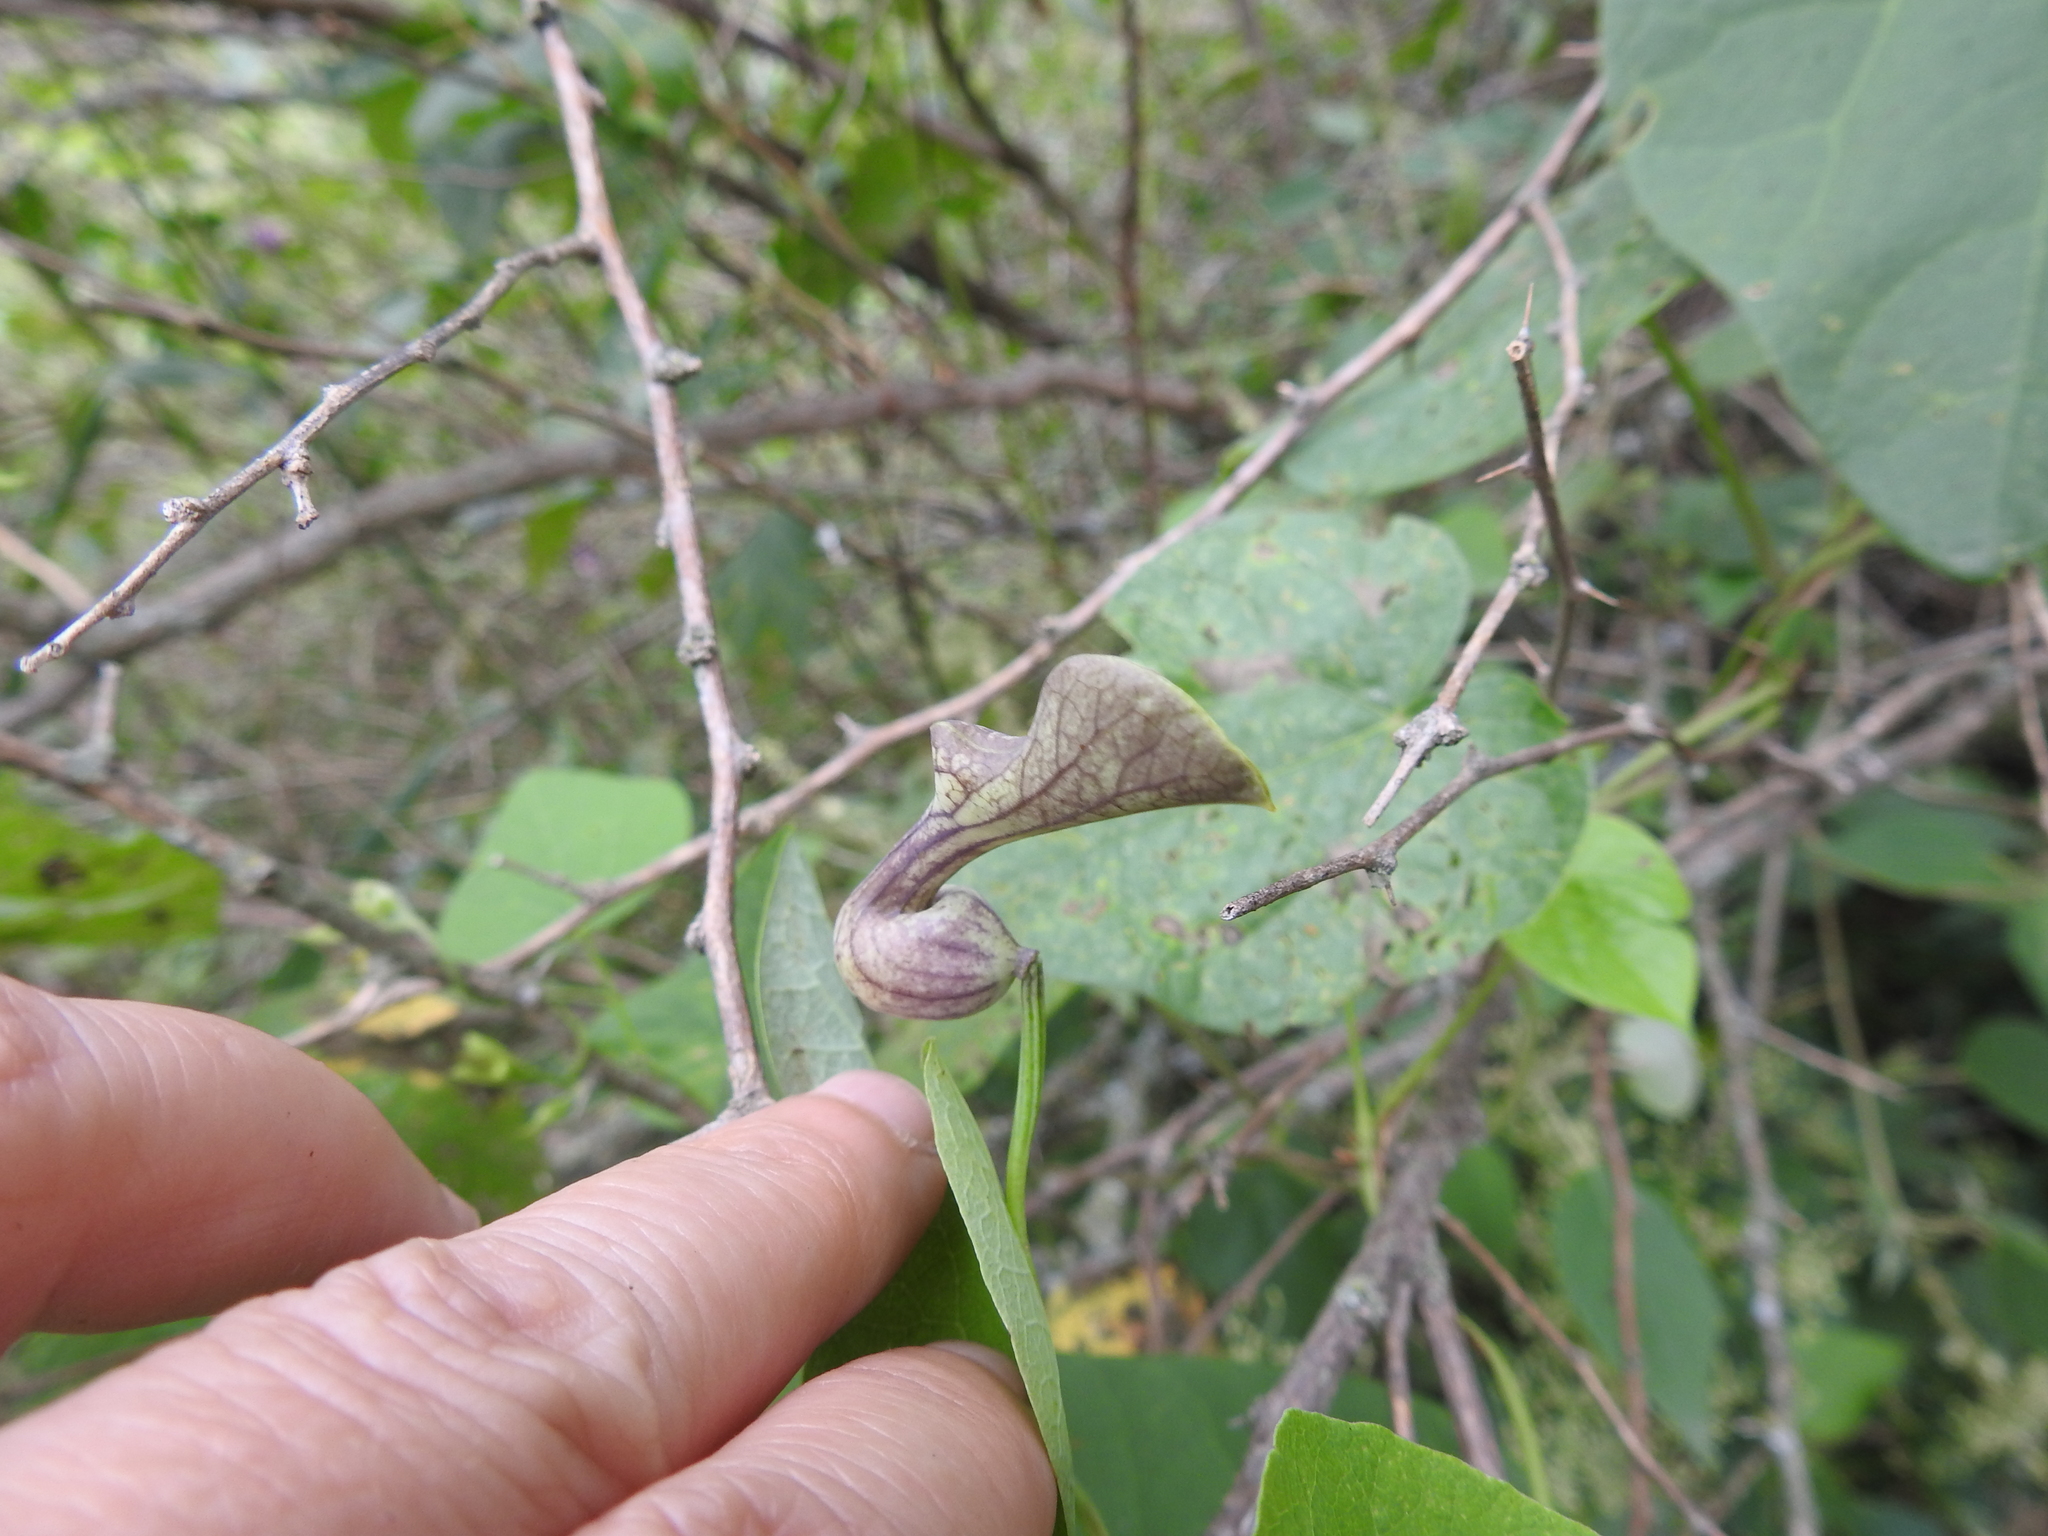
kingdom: Plantae
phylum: Tracheophyta
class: Magnoliopsida
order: Piperales
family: Aristolochiaceae
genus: Aristolochia
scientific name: Aristolochia argentina
